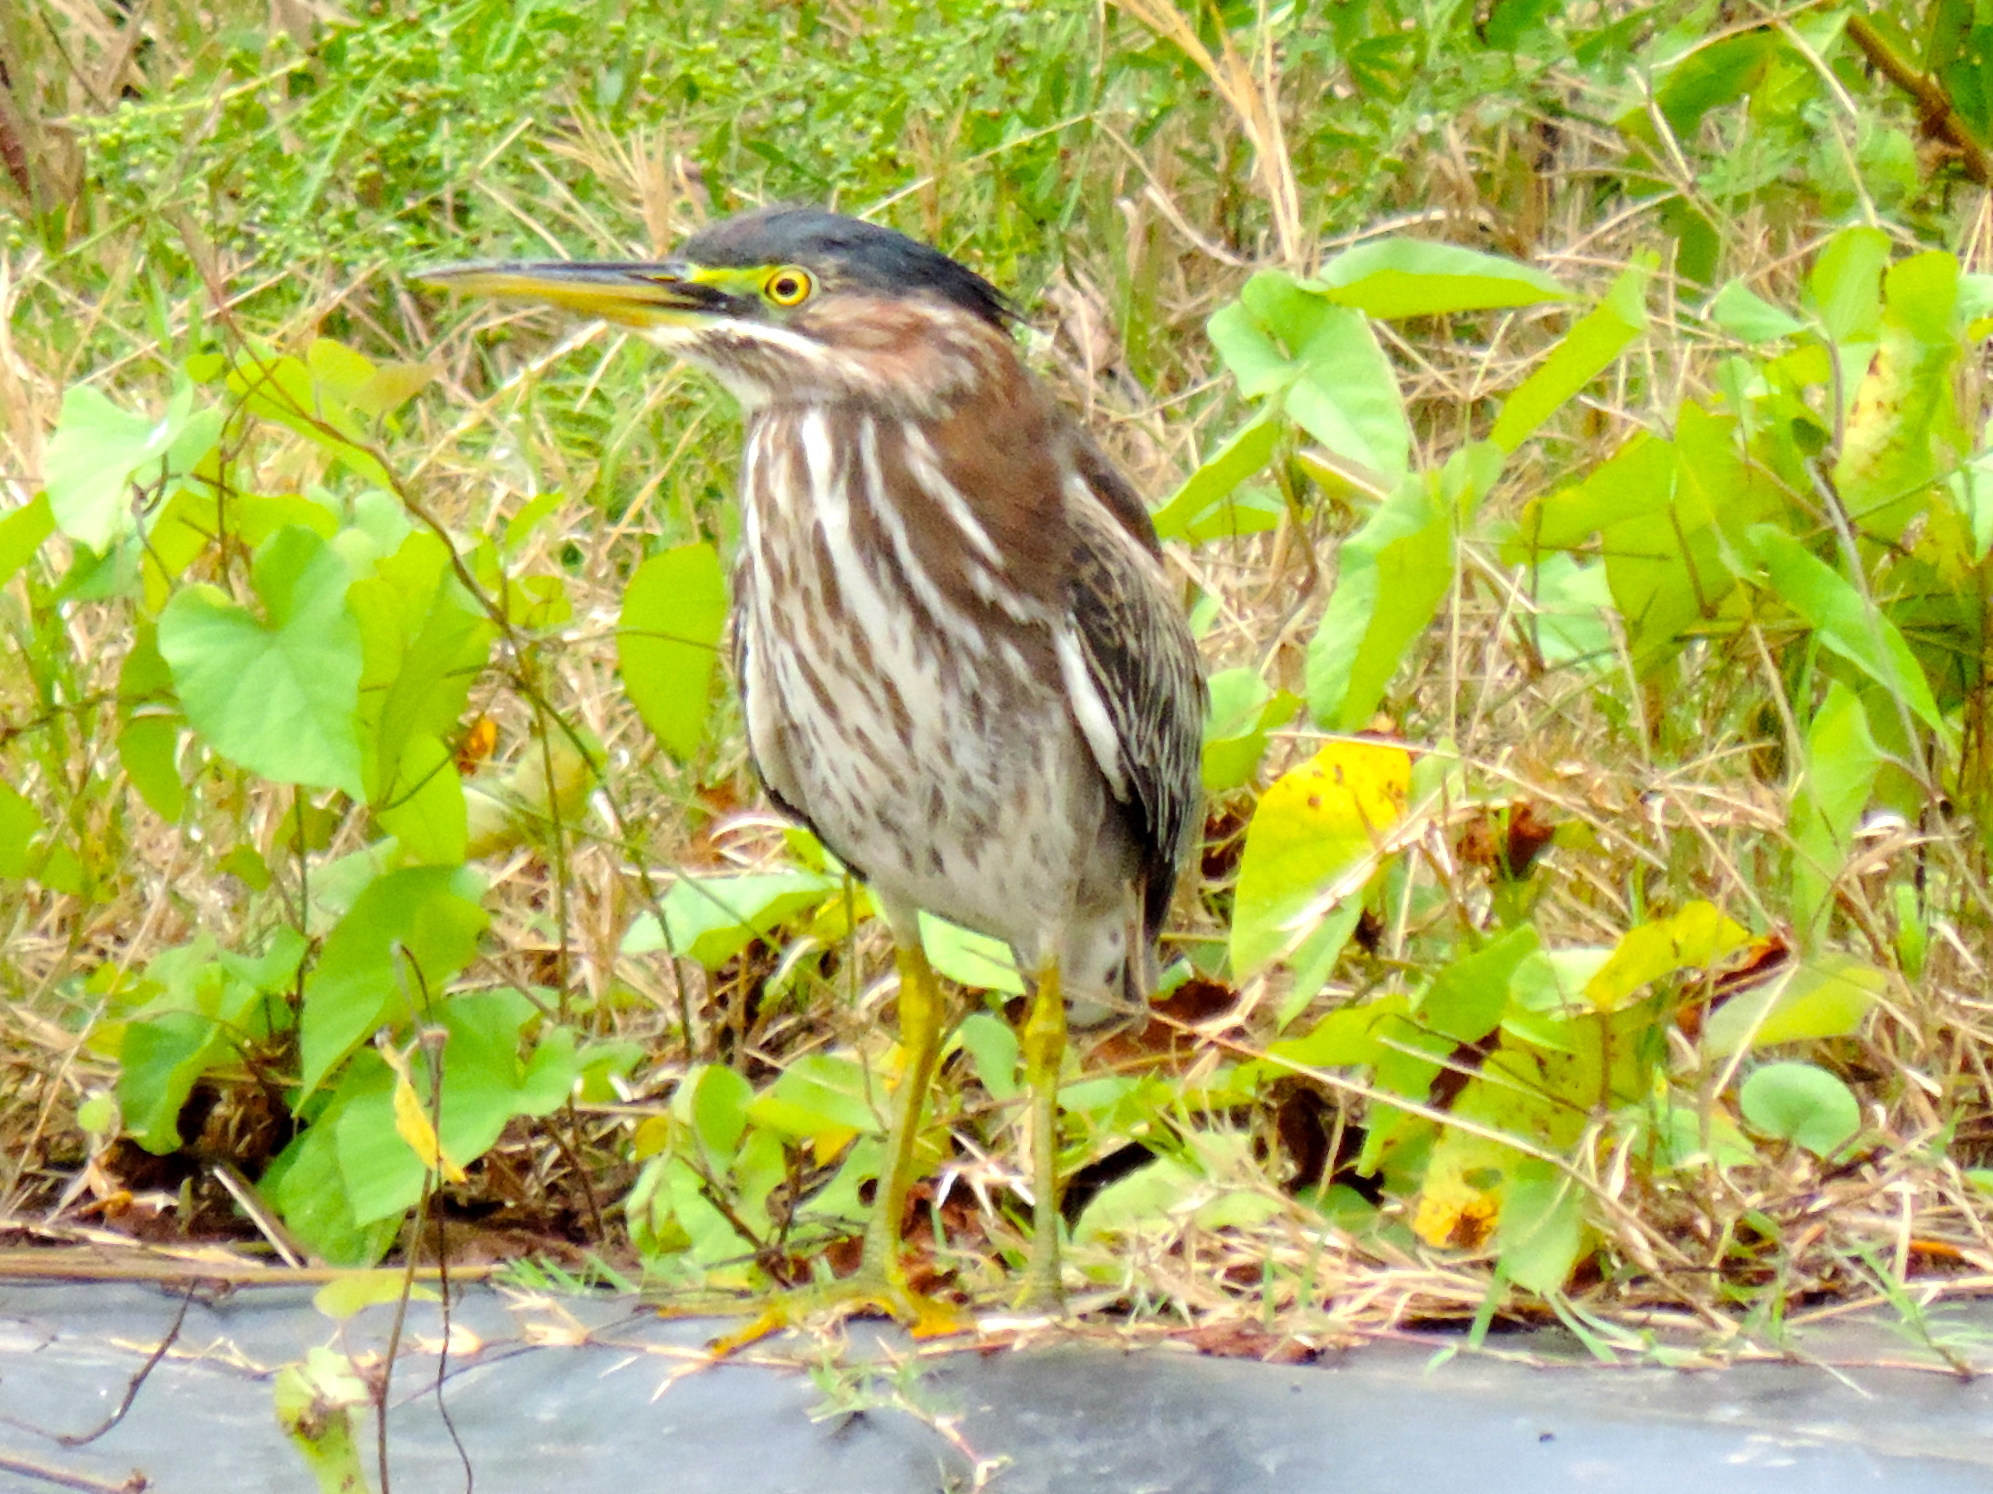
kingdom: Animalia
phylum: Chordata
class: Aves
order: Pelecaniformes
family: Ardeidae
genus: Butorides
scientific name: Butorides virescens
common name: Green heron
